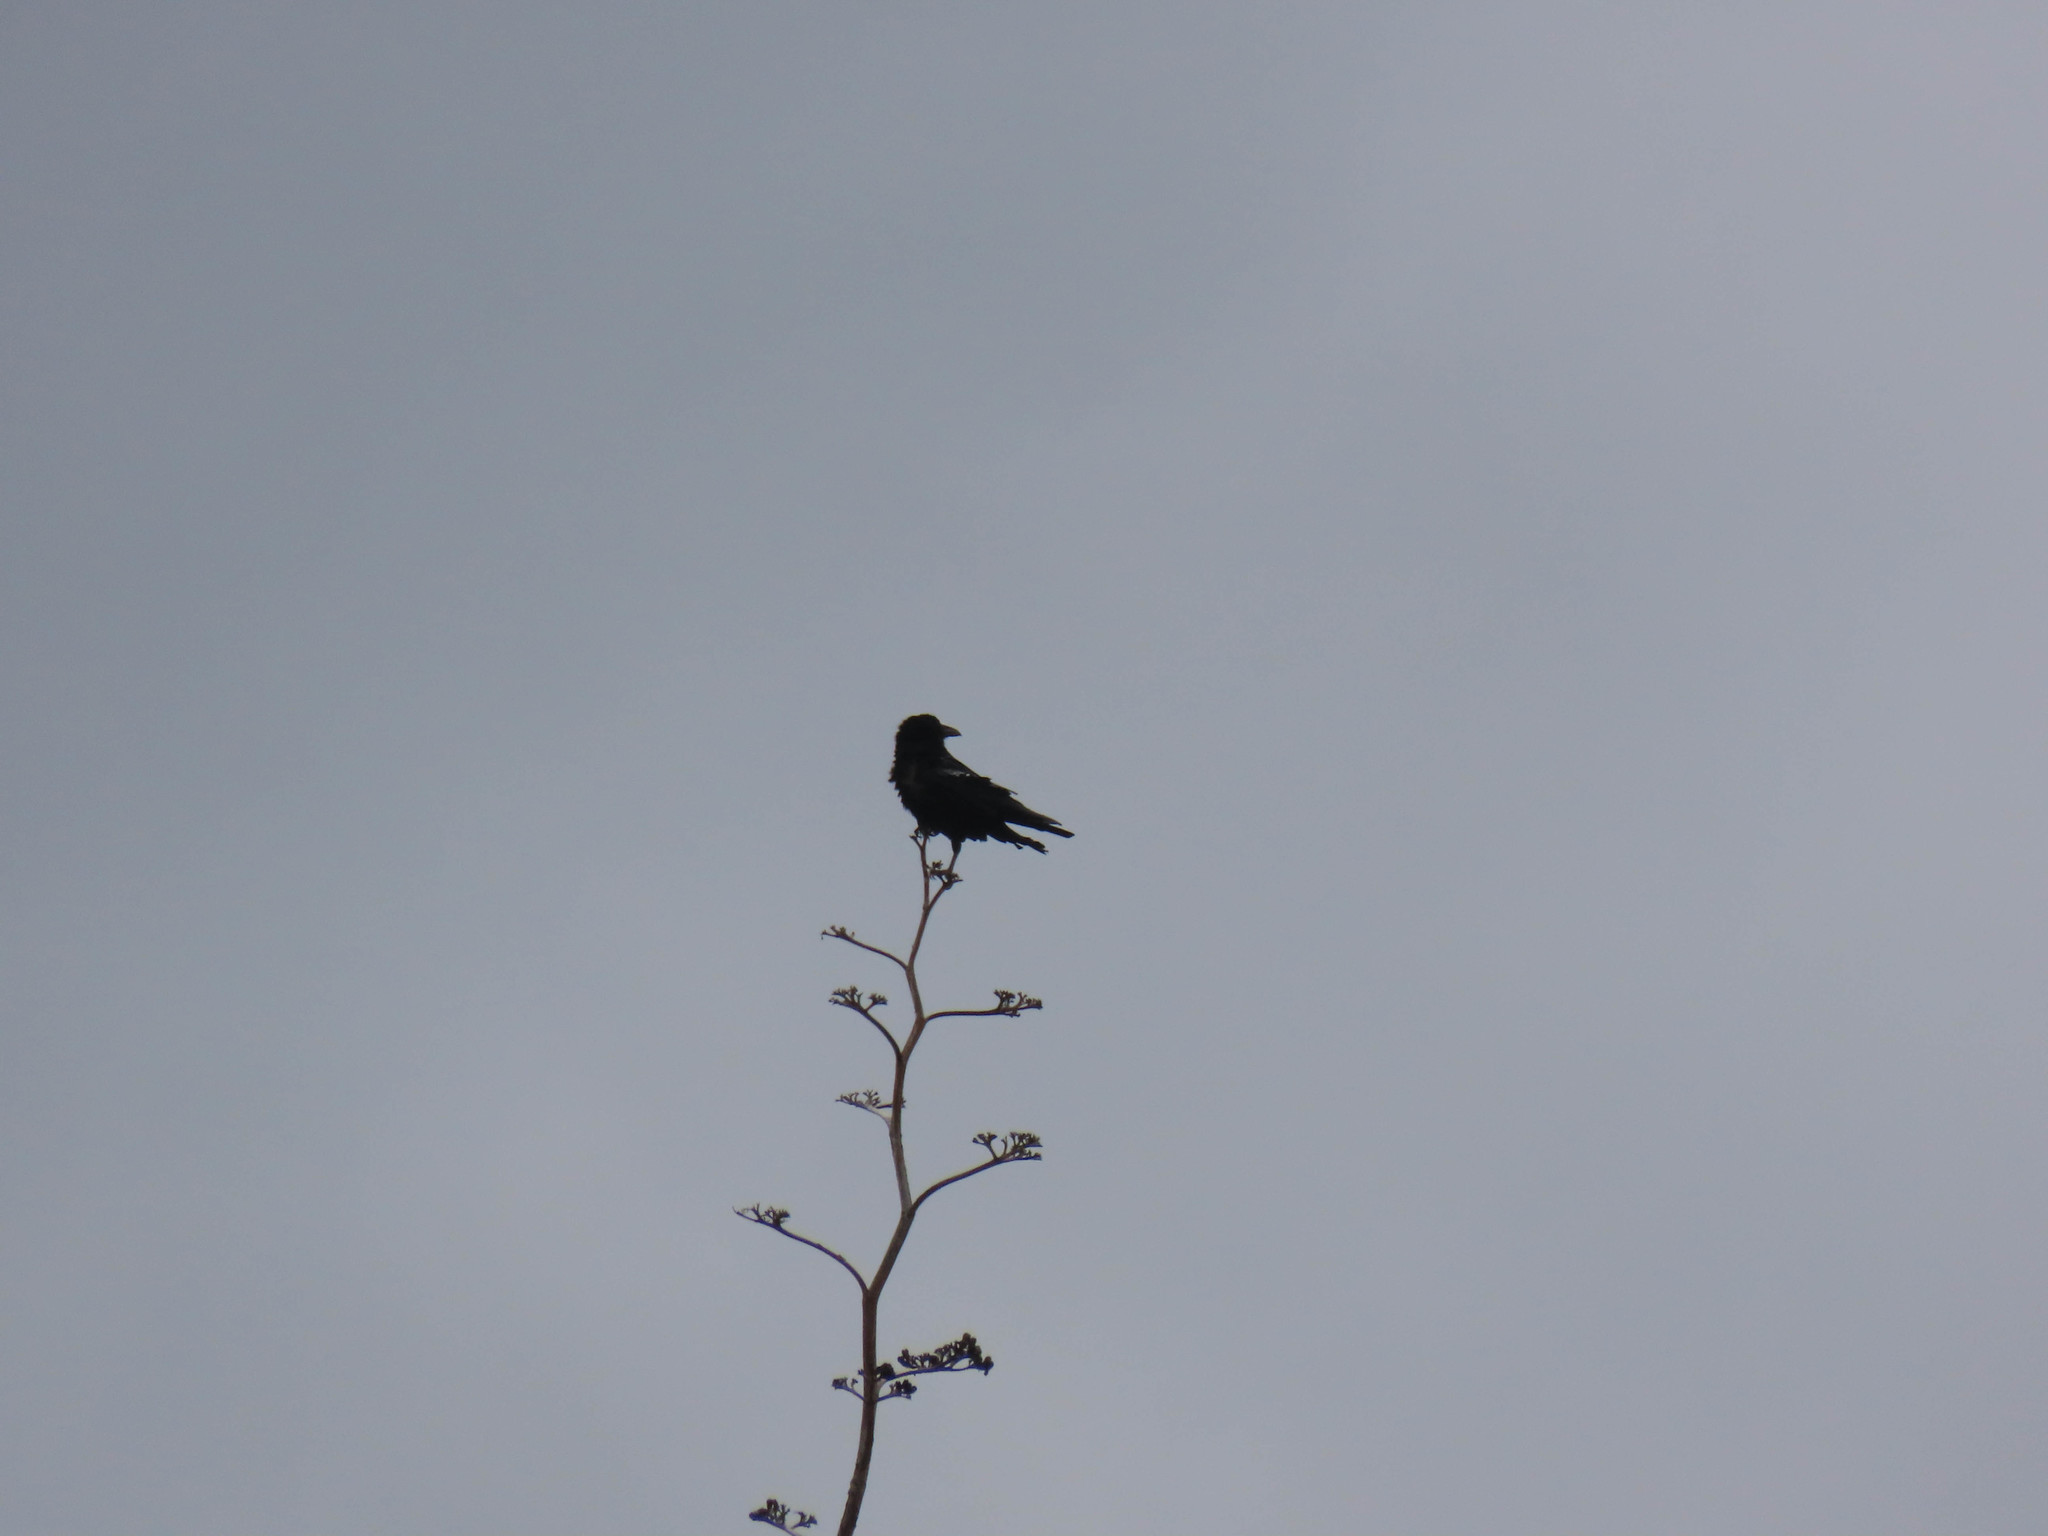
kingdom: Animalia
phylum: Chordata
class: Aves
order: Passeriformes
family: Corvidae
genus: Corvus
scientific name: Corvus corax
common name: Common raven
